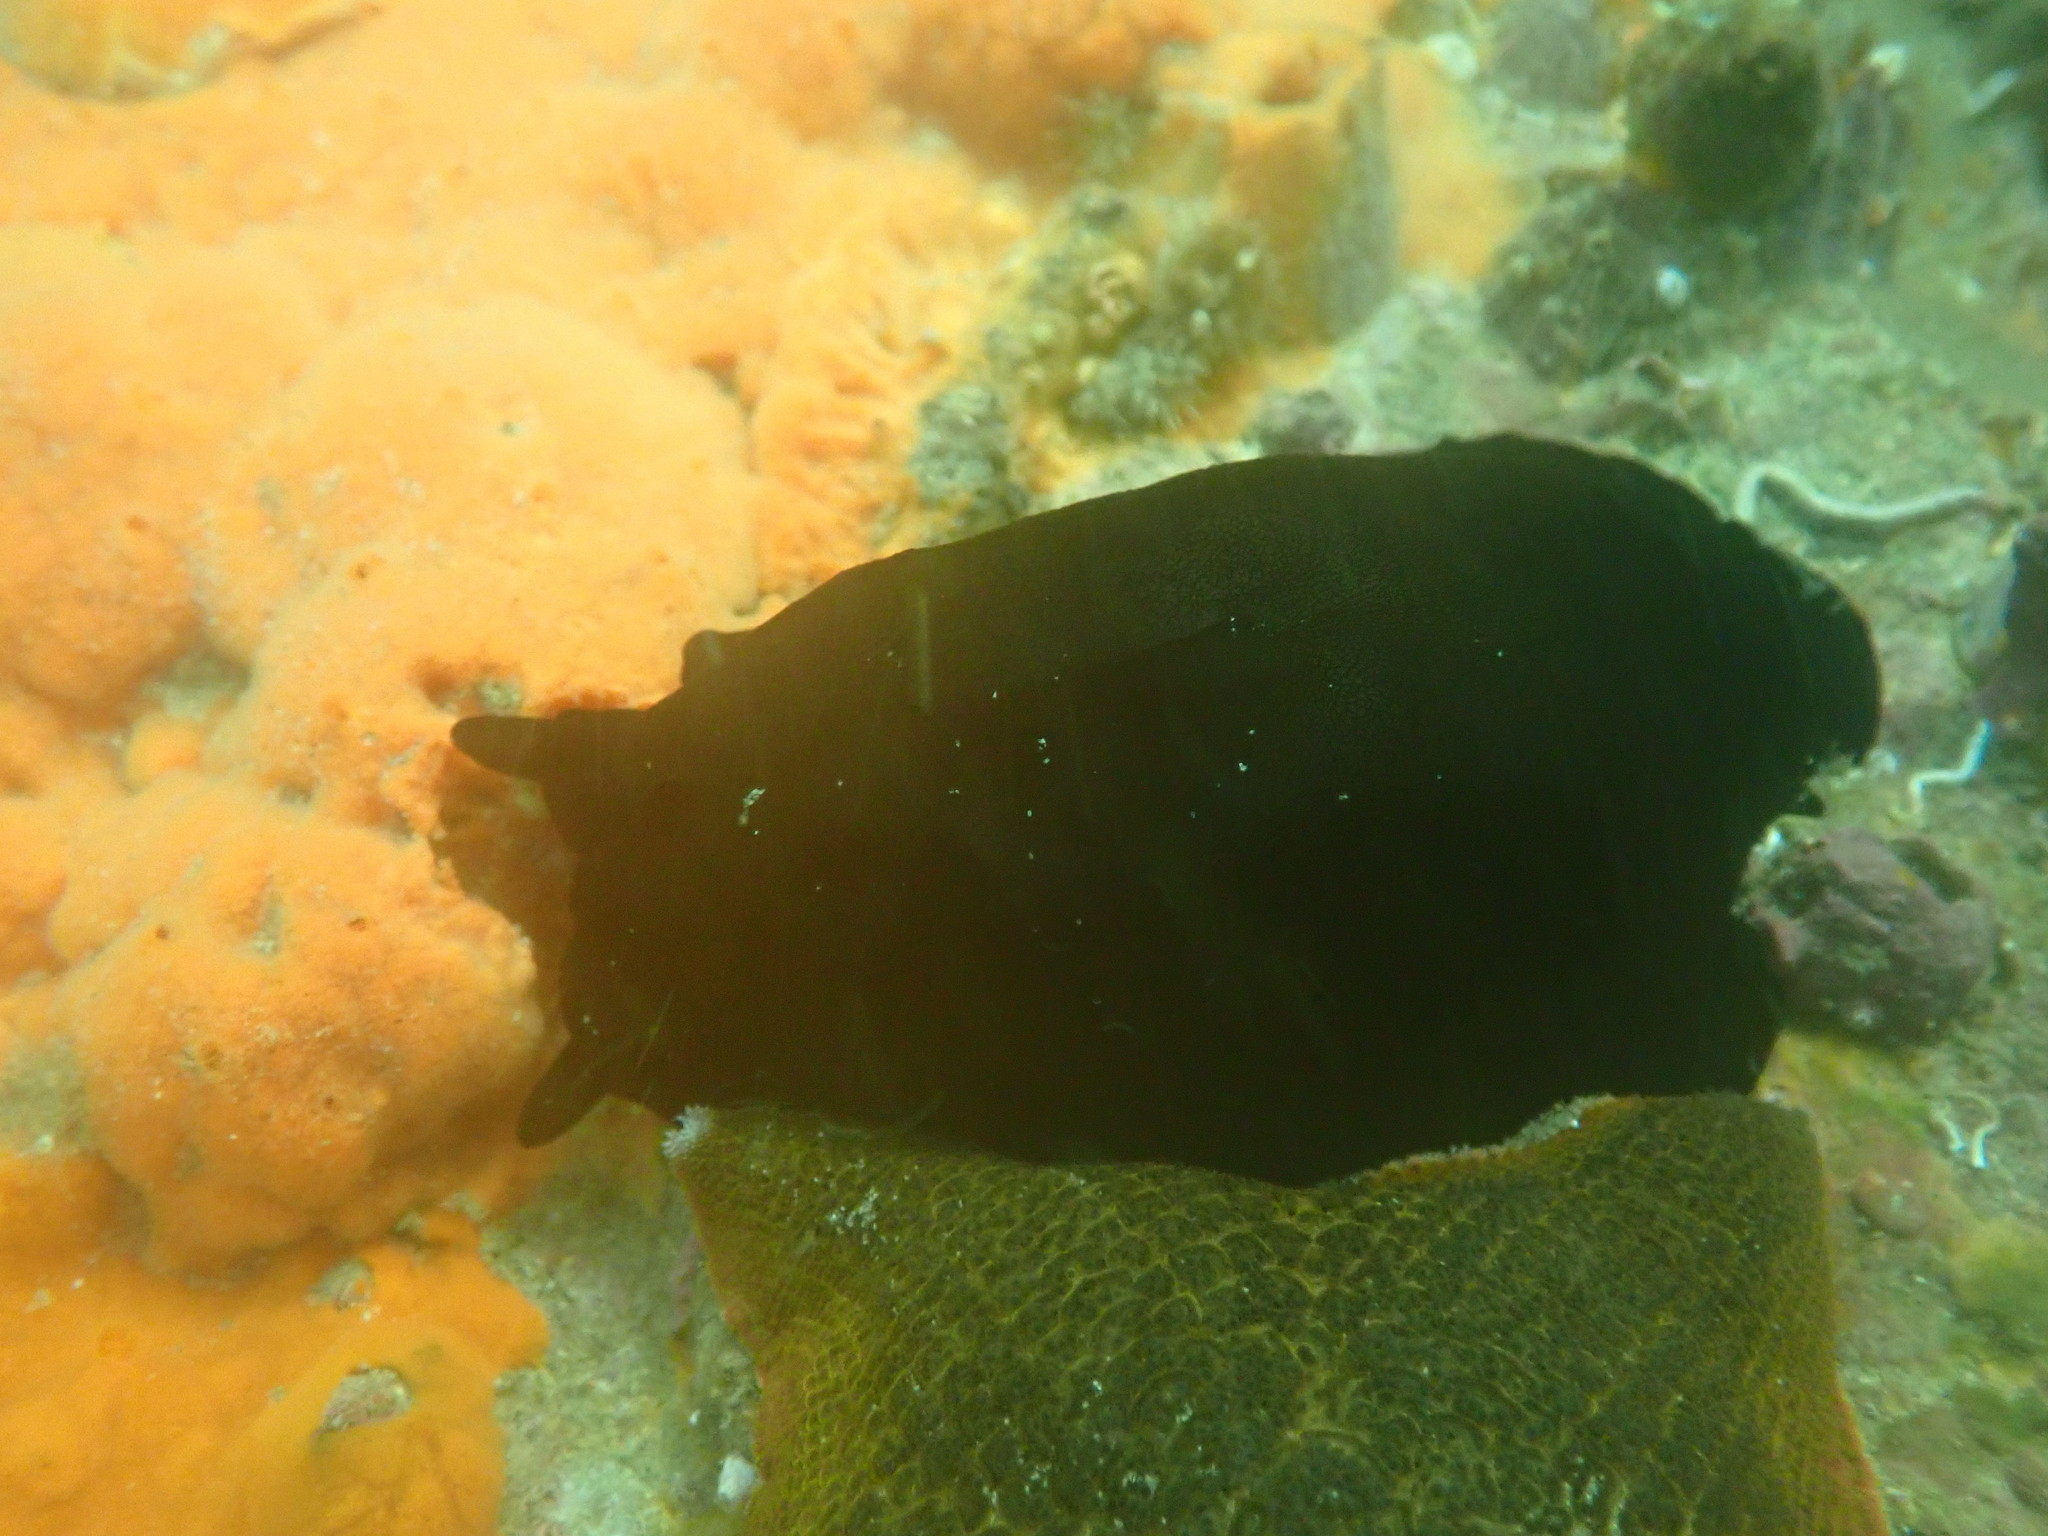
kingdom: Animalia
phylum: Mollusca
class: Gastropoda
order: Lepetellida
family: Fissurellidae
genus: Scutus
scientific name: Scutus breviculus
